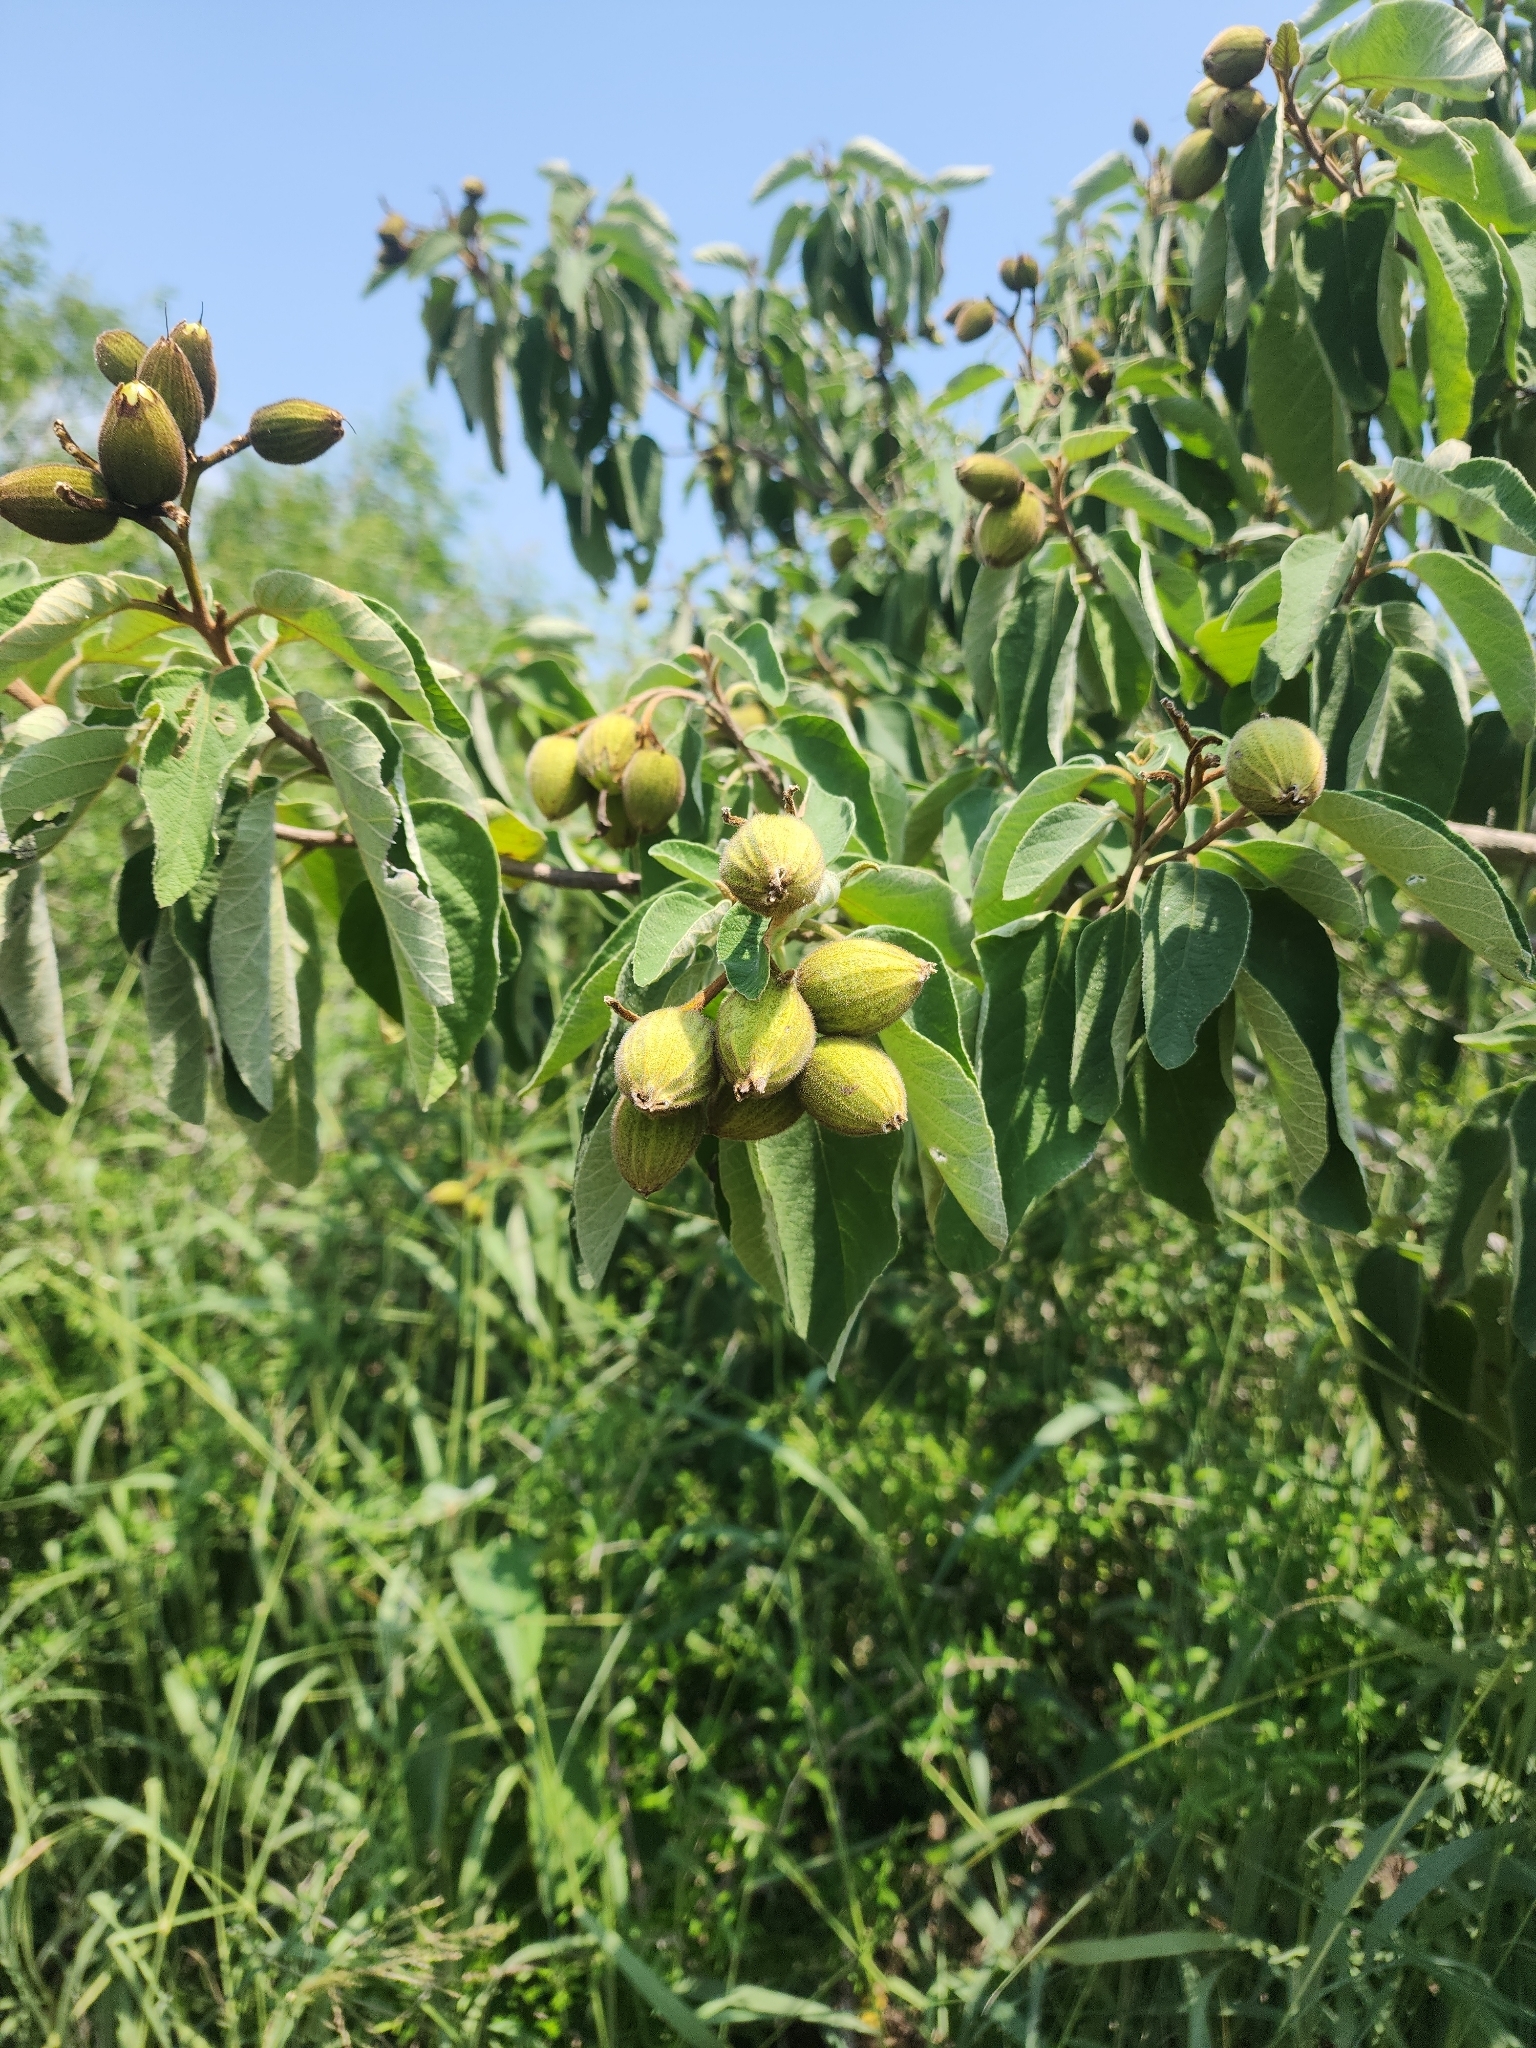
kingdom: Plantae
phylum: Tracheophyta
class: Magnoliopsida
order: Boraginales
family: Cordiaceae
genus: Cordia
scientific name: Cordia boissieri
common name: Mexican-olive
